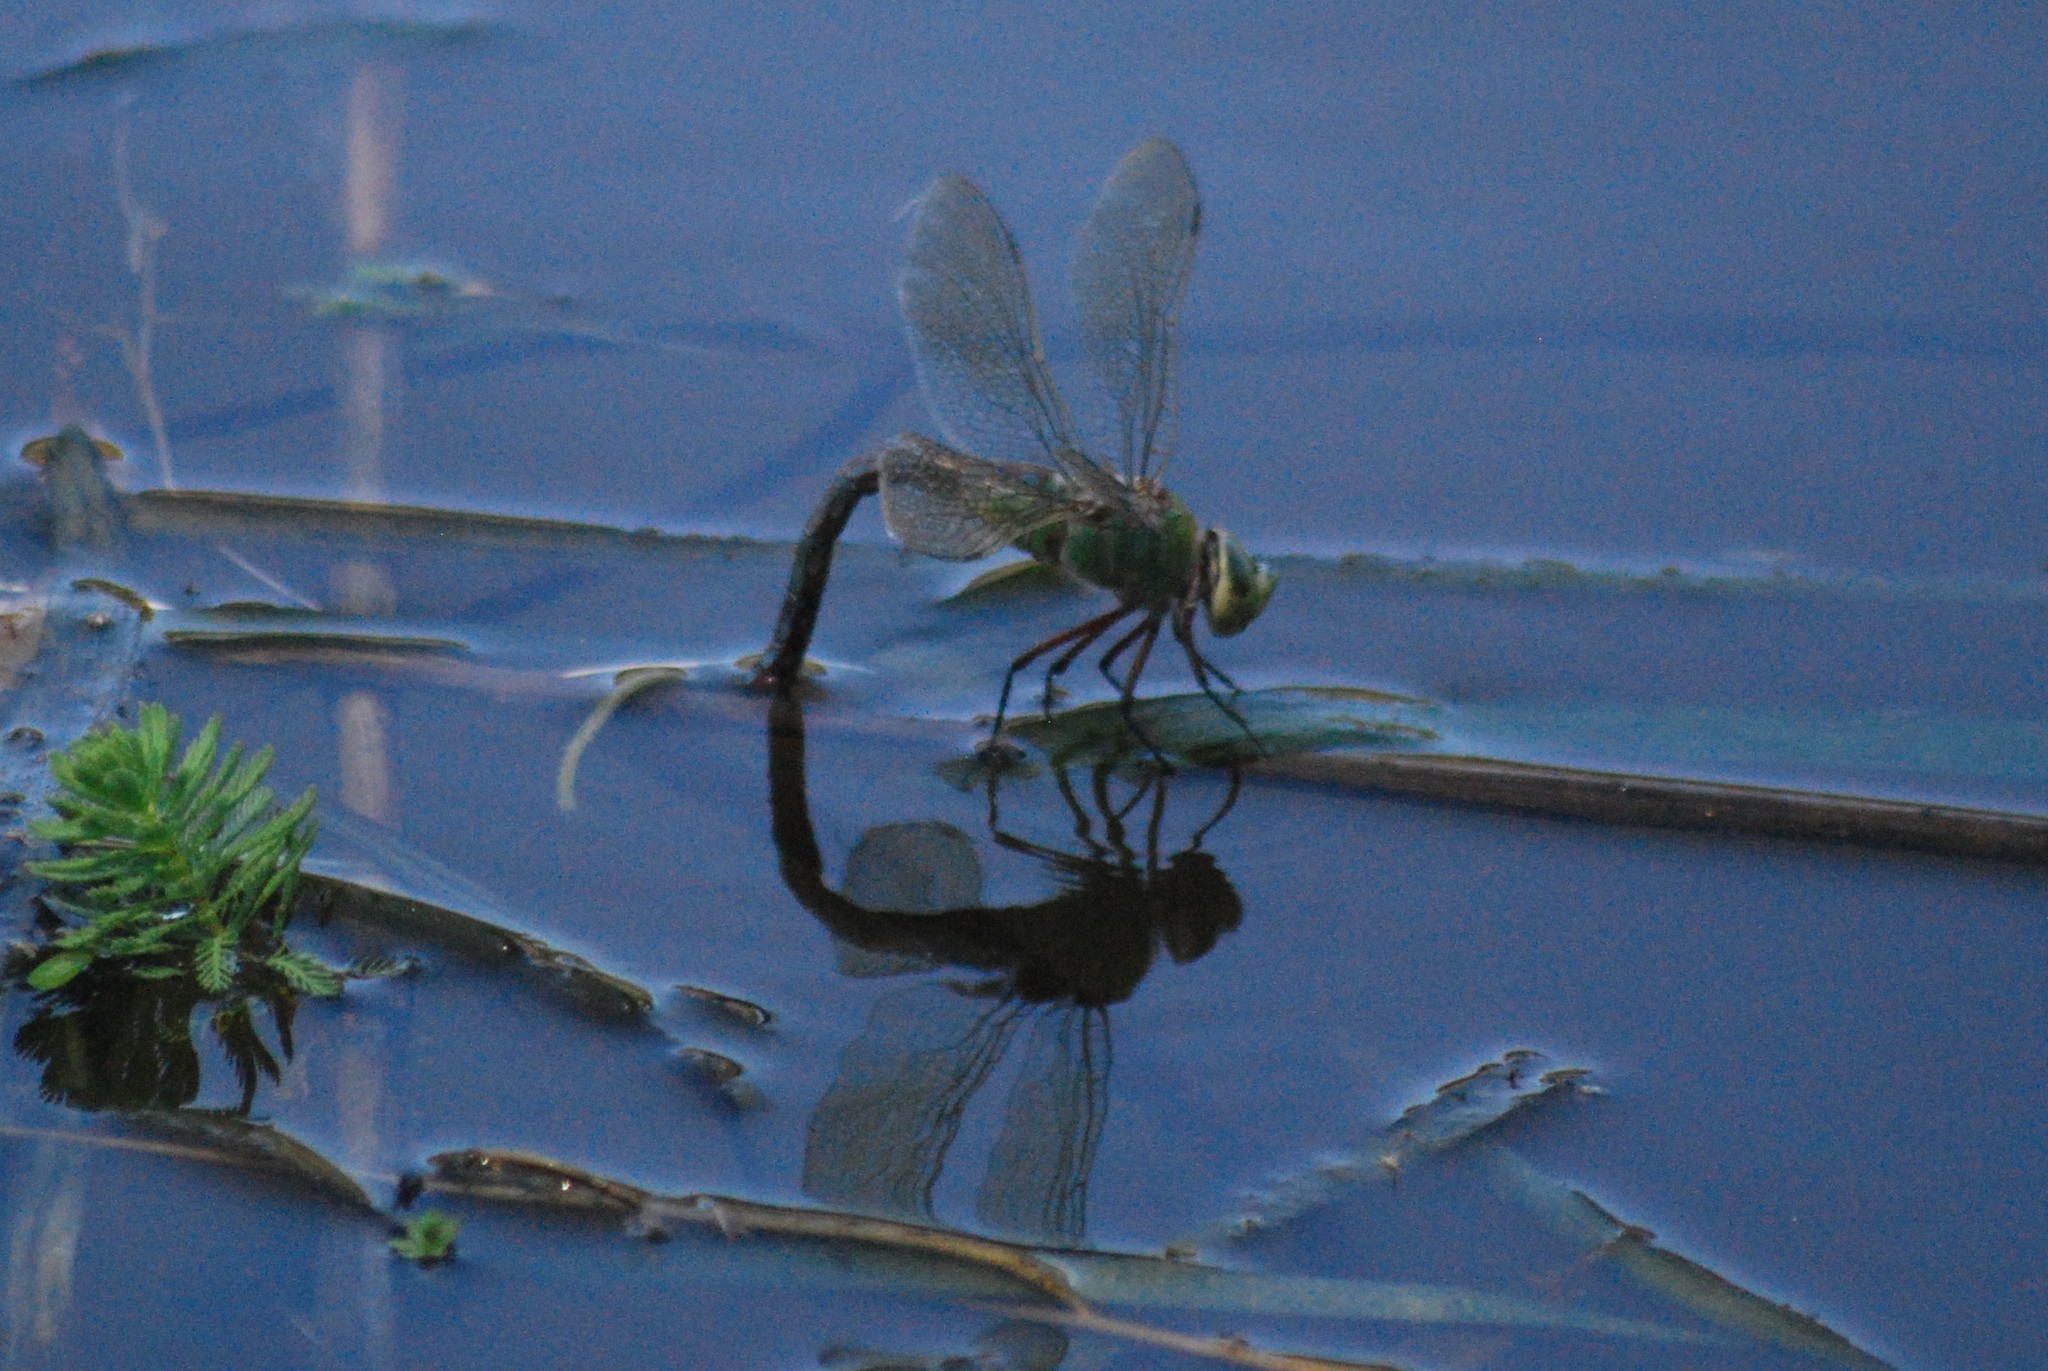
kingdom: Animalia
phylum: Arthropoda
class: Insecta
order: Odonata
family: Aeshnidae
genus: Anax
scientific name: Anax imperator
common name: Emperor dragonfly
